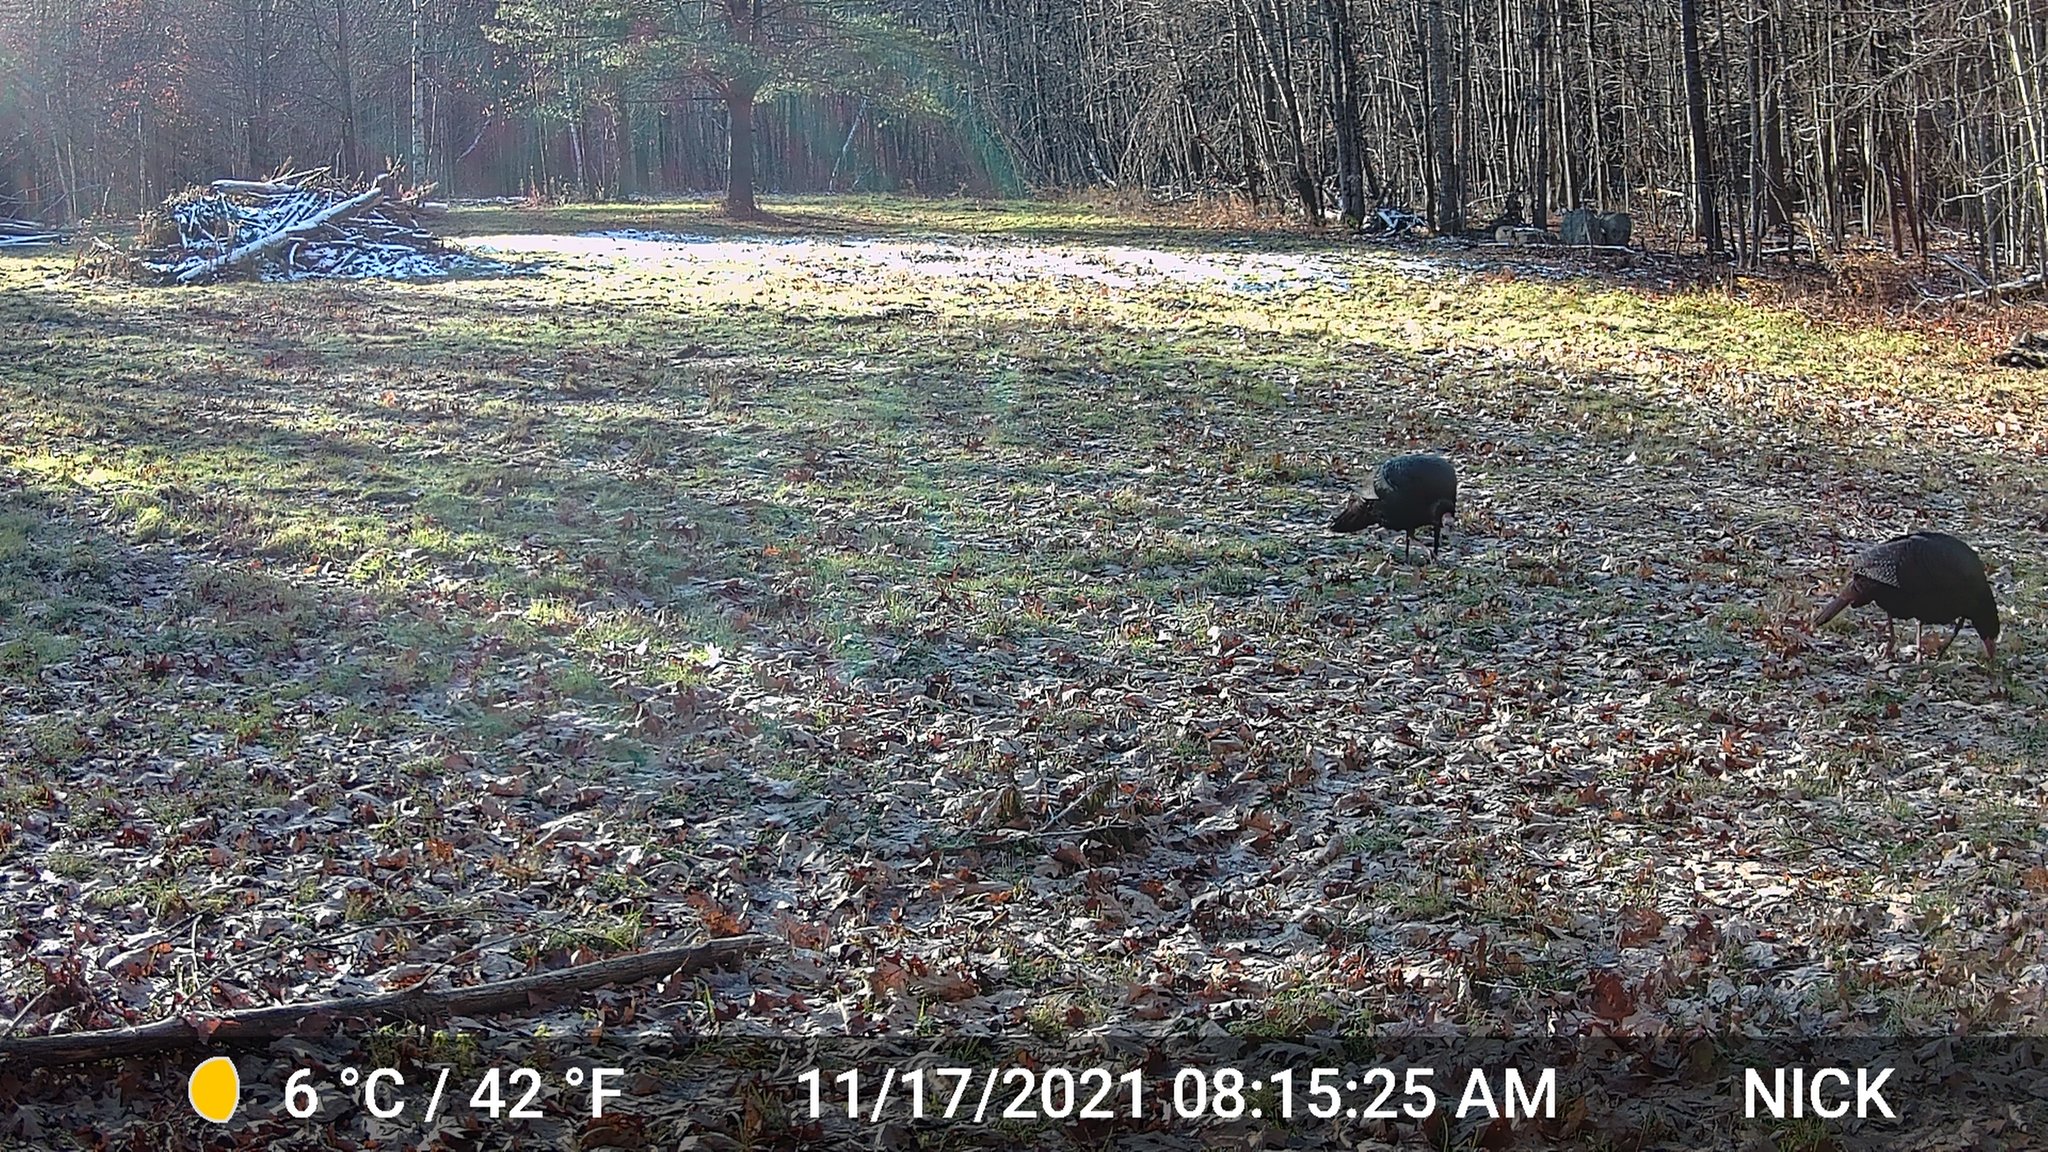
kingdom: Animalia
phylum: Chordata
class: Aves
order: Galliformes
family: Phasianidae
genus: Meleagris
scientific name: Meleagris gallopavo
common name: Wild turkey
